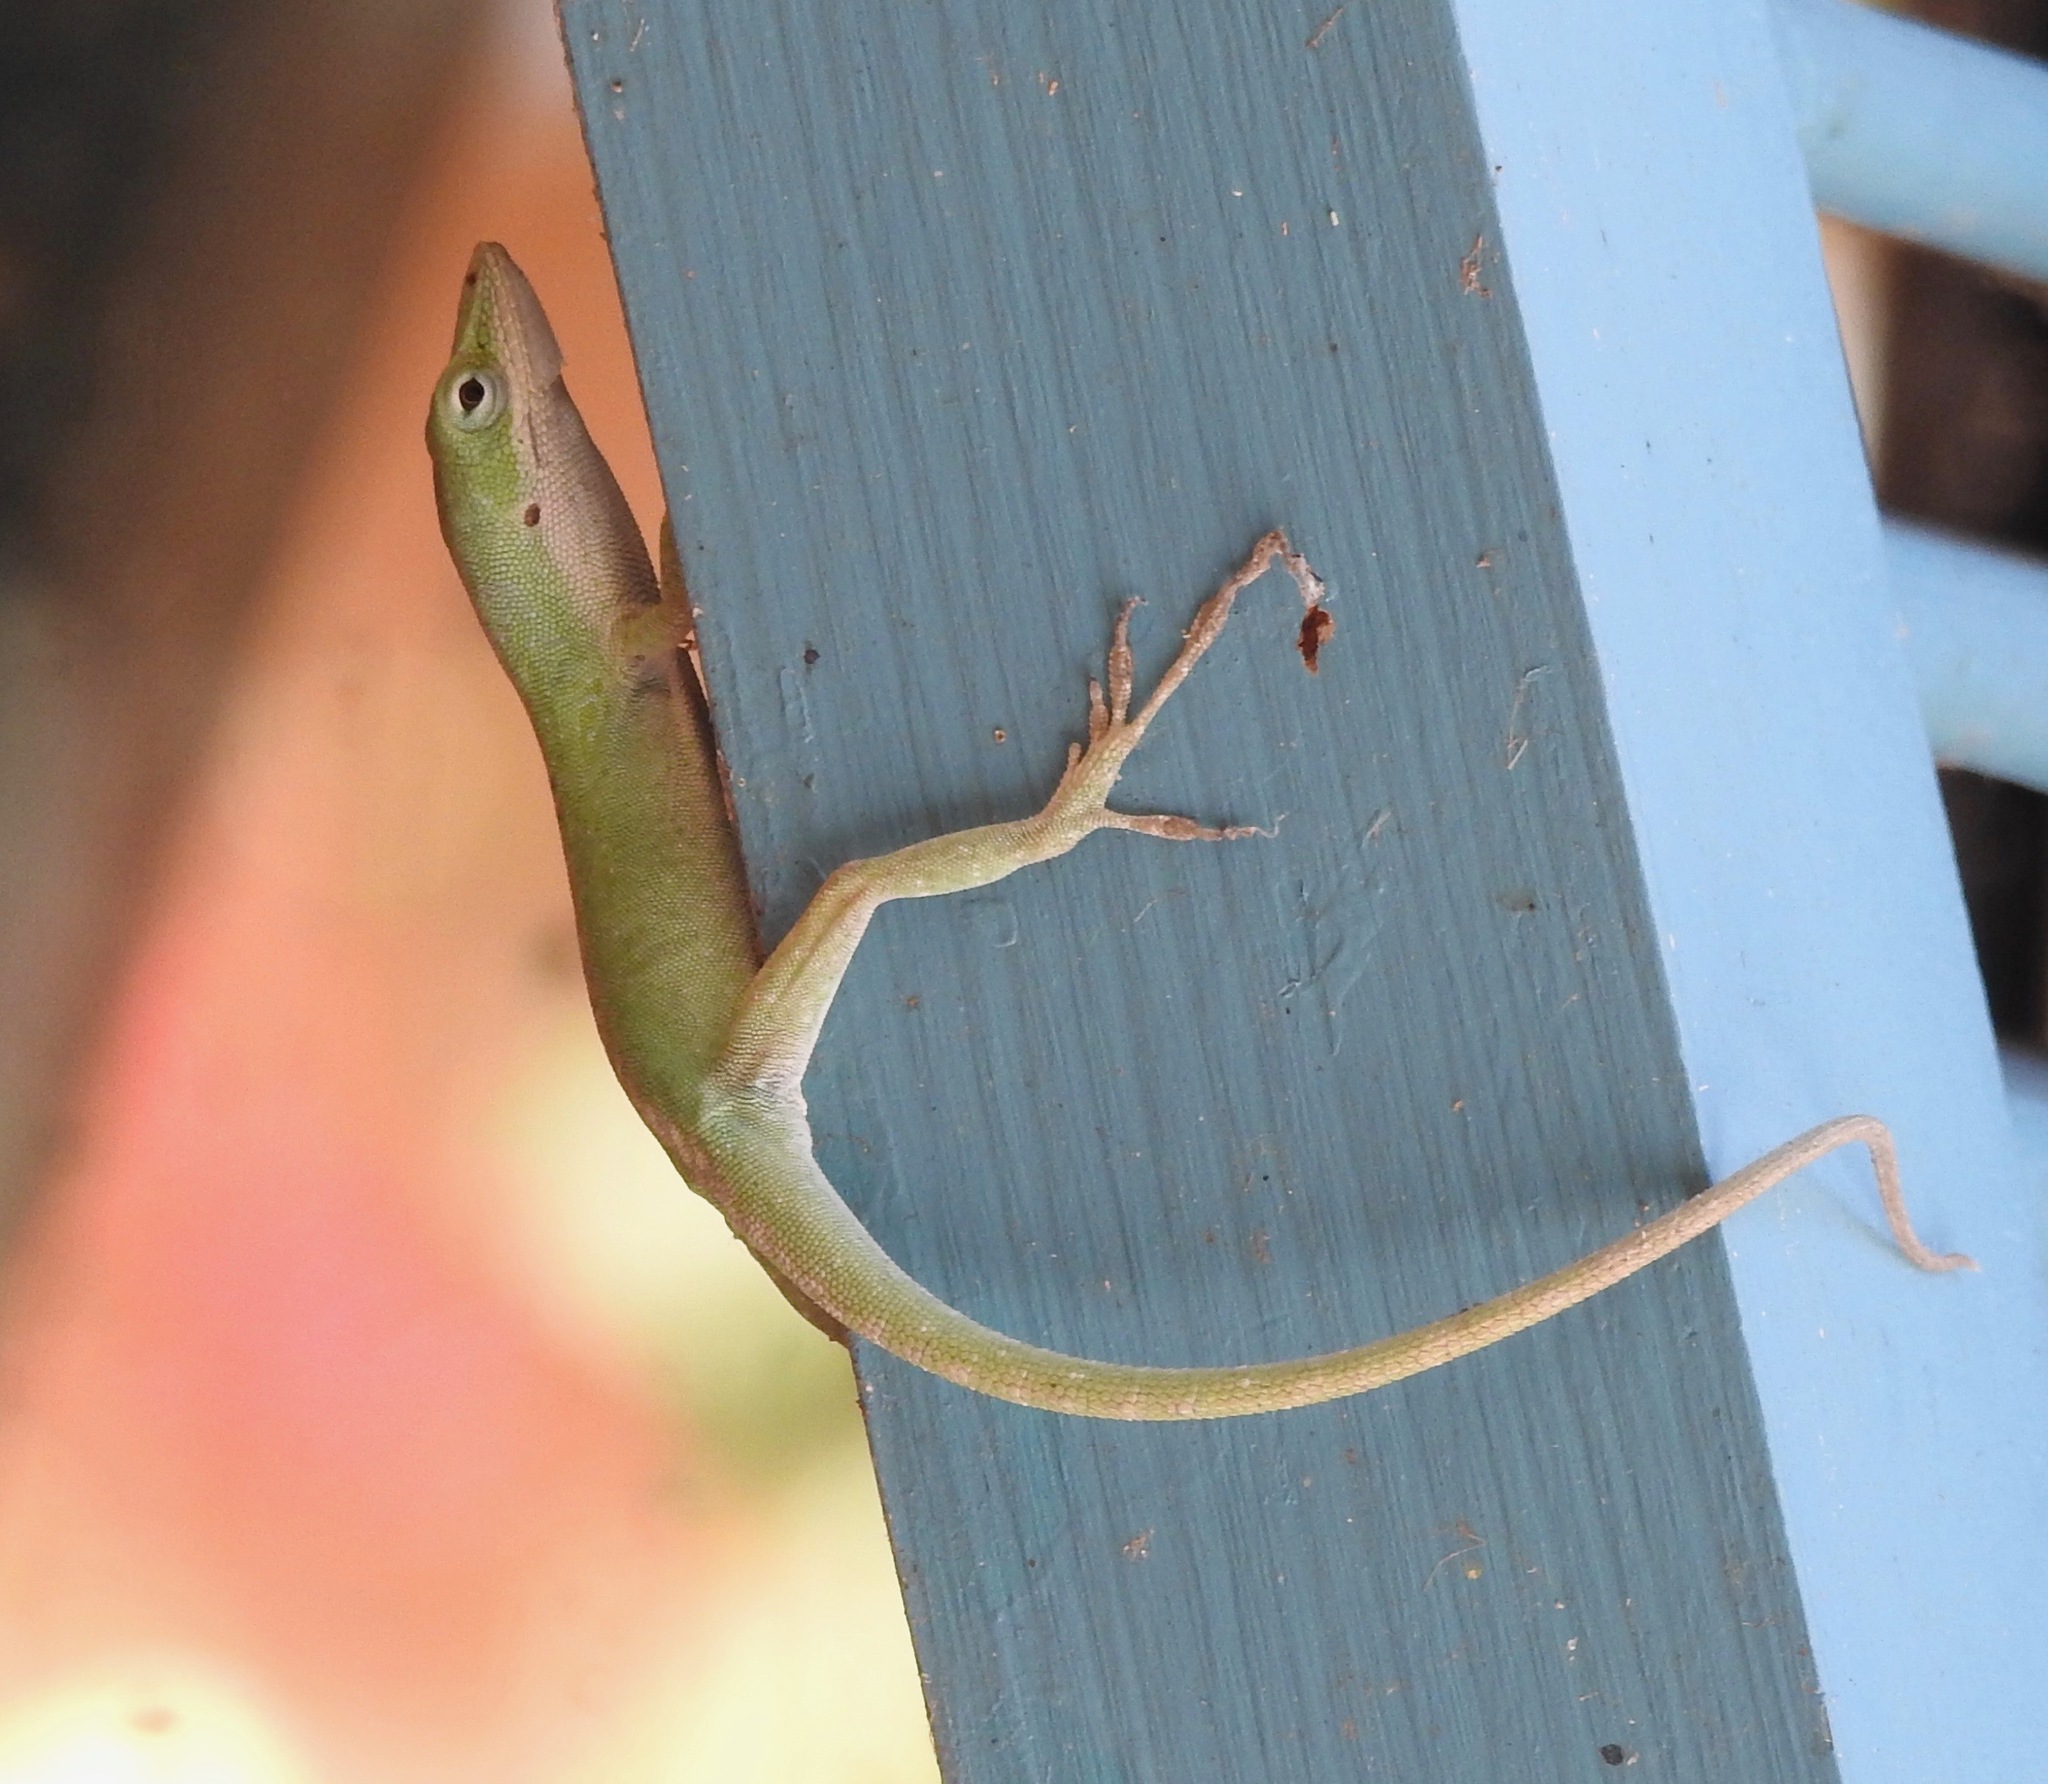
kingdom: Animalia
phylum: Chordata
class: Squamata
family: Dactyloidae
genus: Anolis
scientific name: Anolis carolinensis
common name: Green anole
